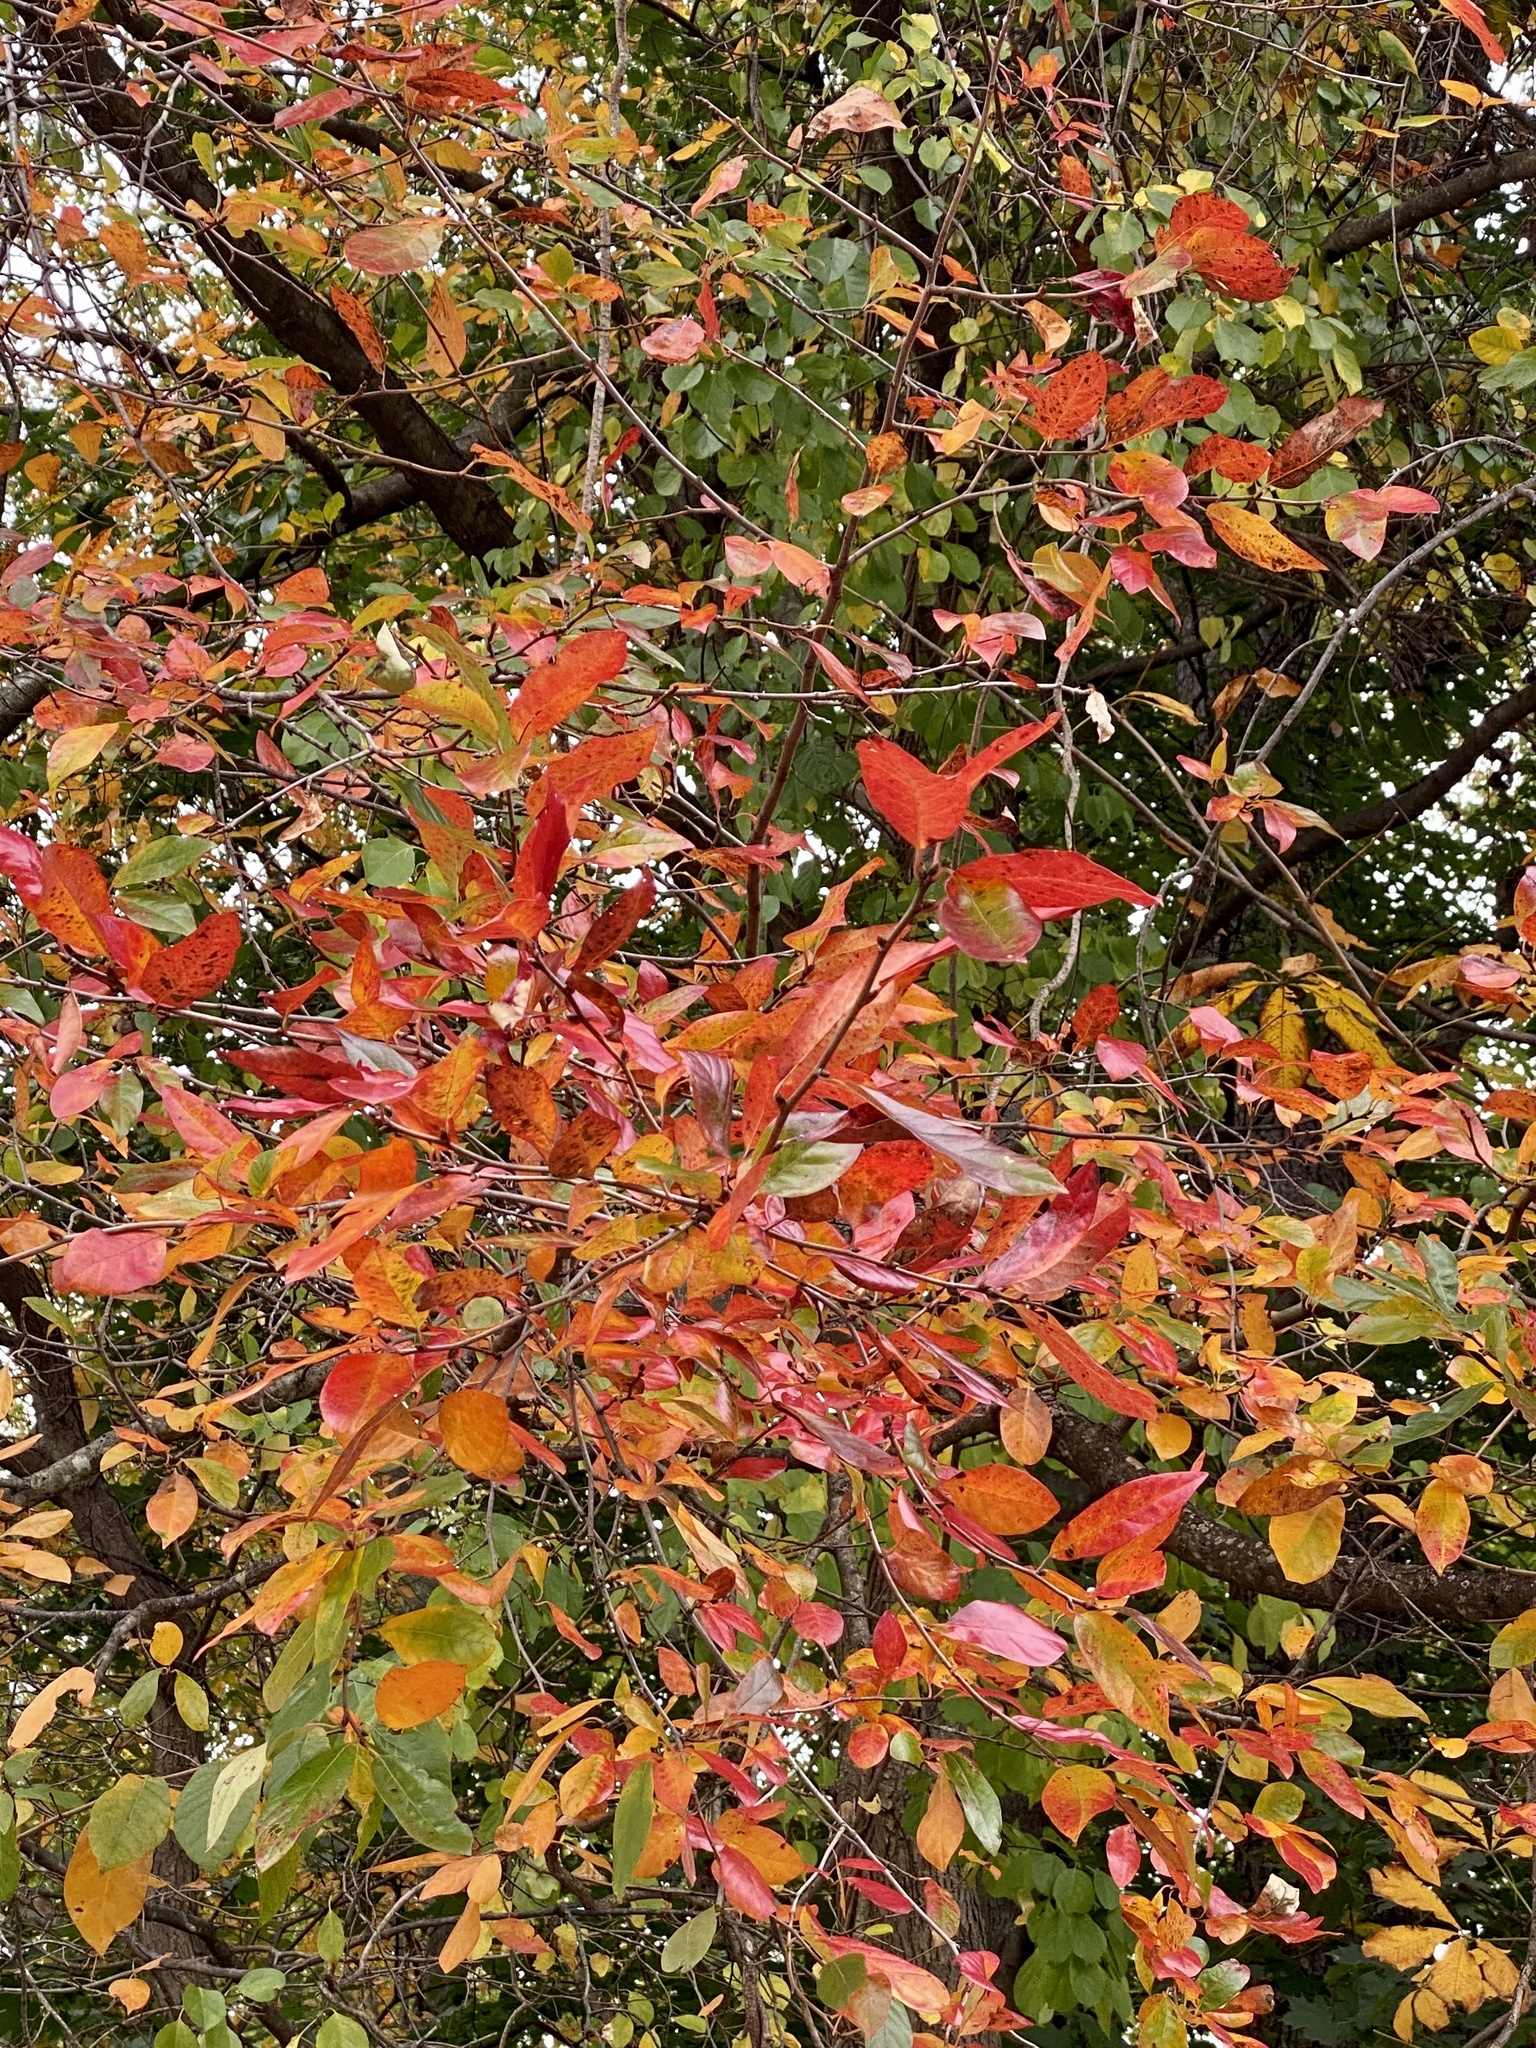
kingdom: Plantae
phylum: Tracheophyta
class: Magnoliopsida
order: Cornales
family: Nyssaceae
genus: Nyssa
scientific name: Nyssa sylvatica
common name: Black tupelo
